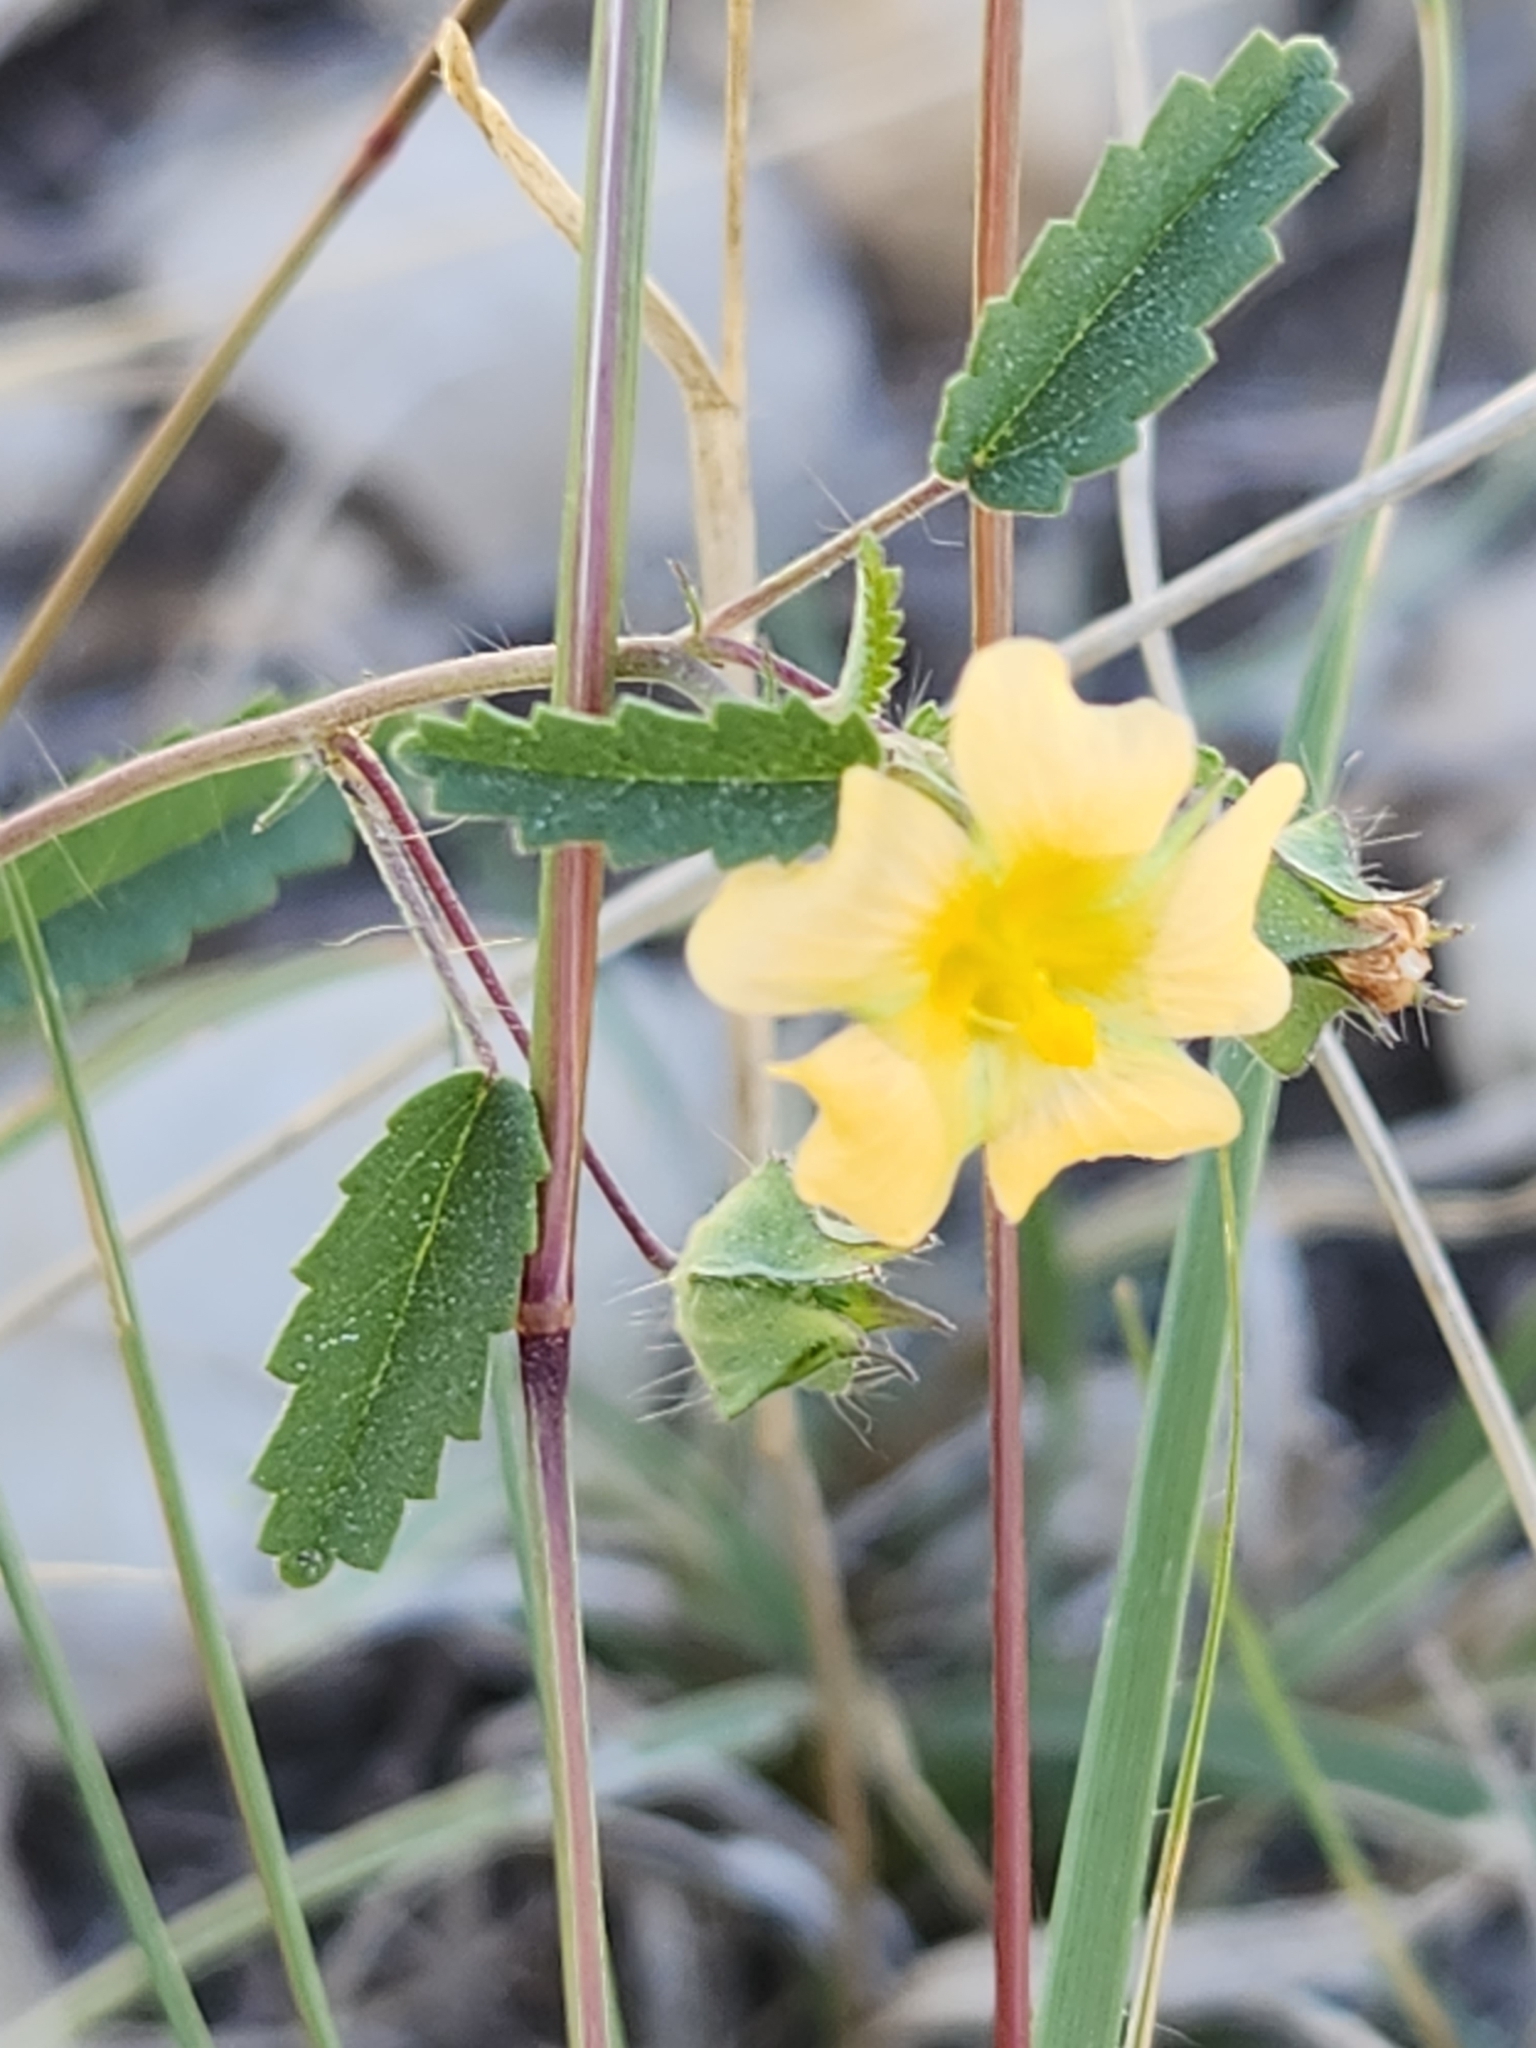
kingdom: Plantae
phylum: Tracheophyta
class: Magnoliopsida
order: Malvales
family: Malvaceae
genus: Sida
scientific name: Sida abutilifolia
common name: Spreading fanpetals
